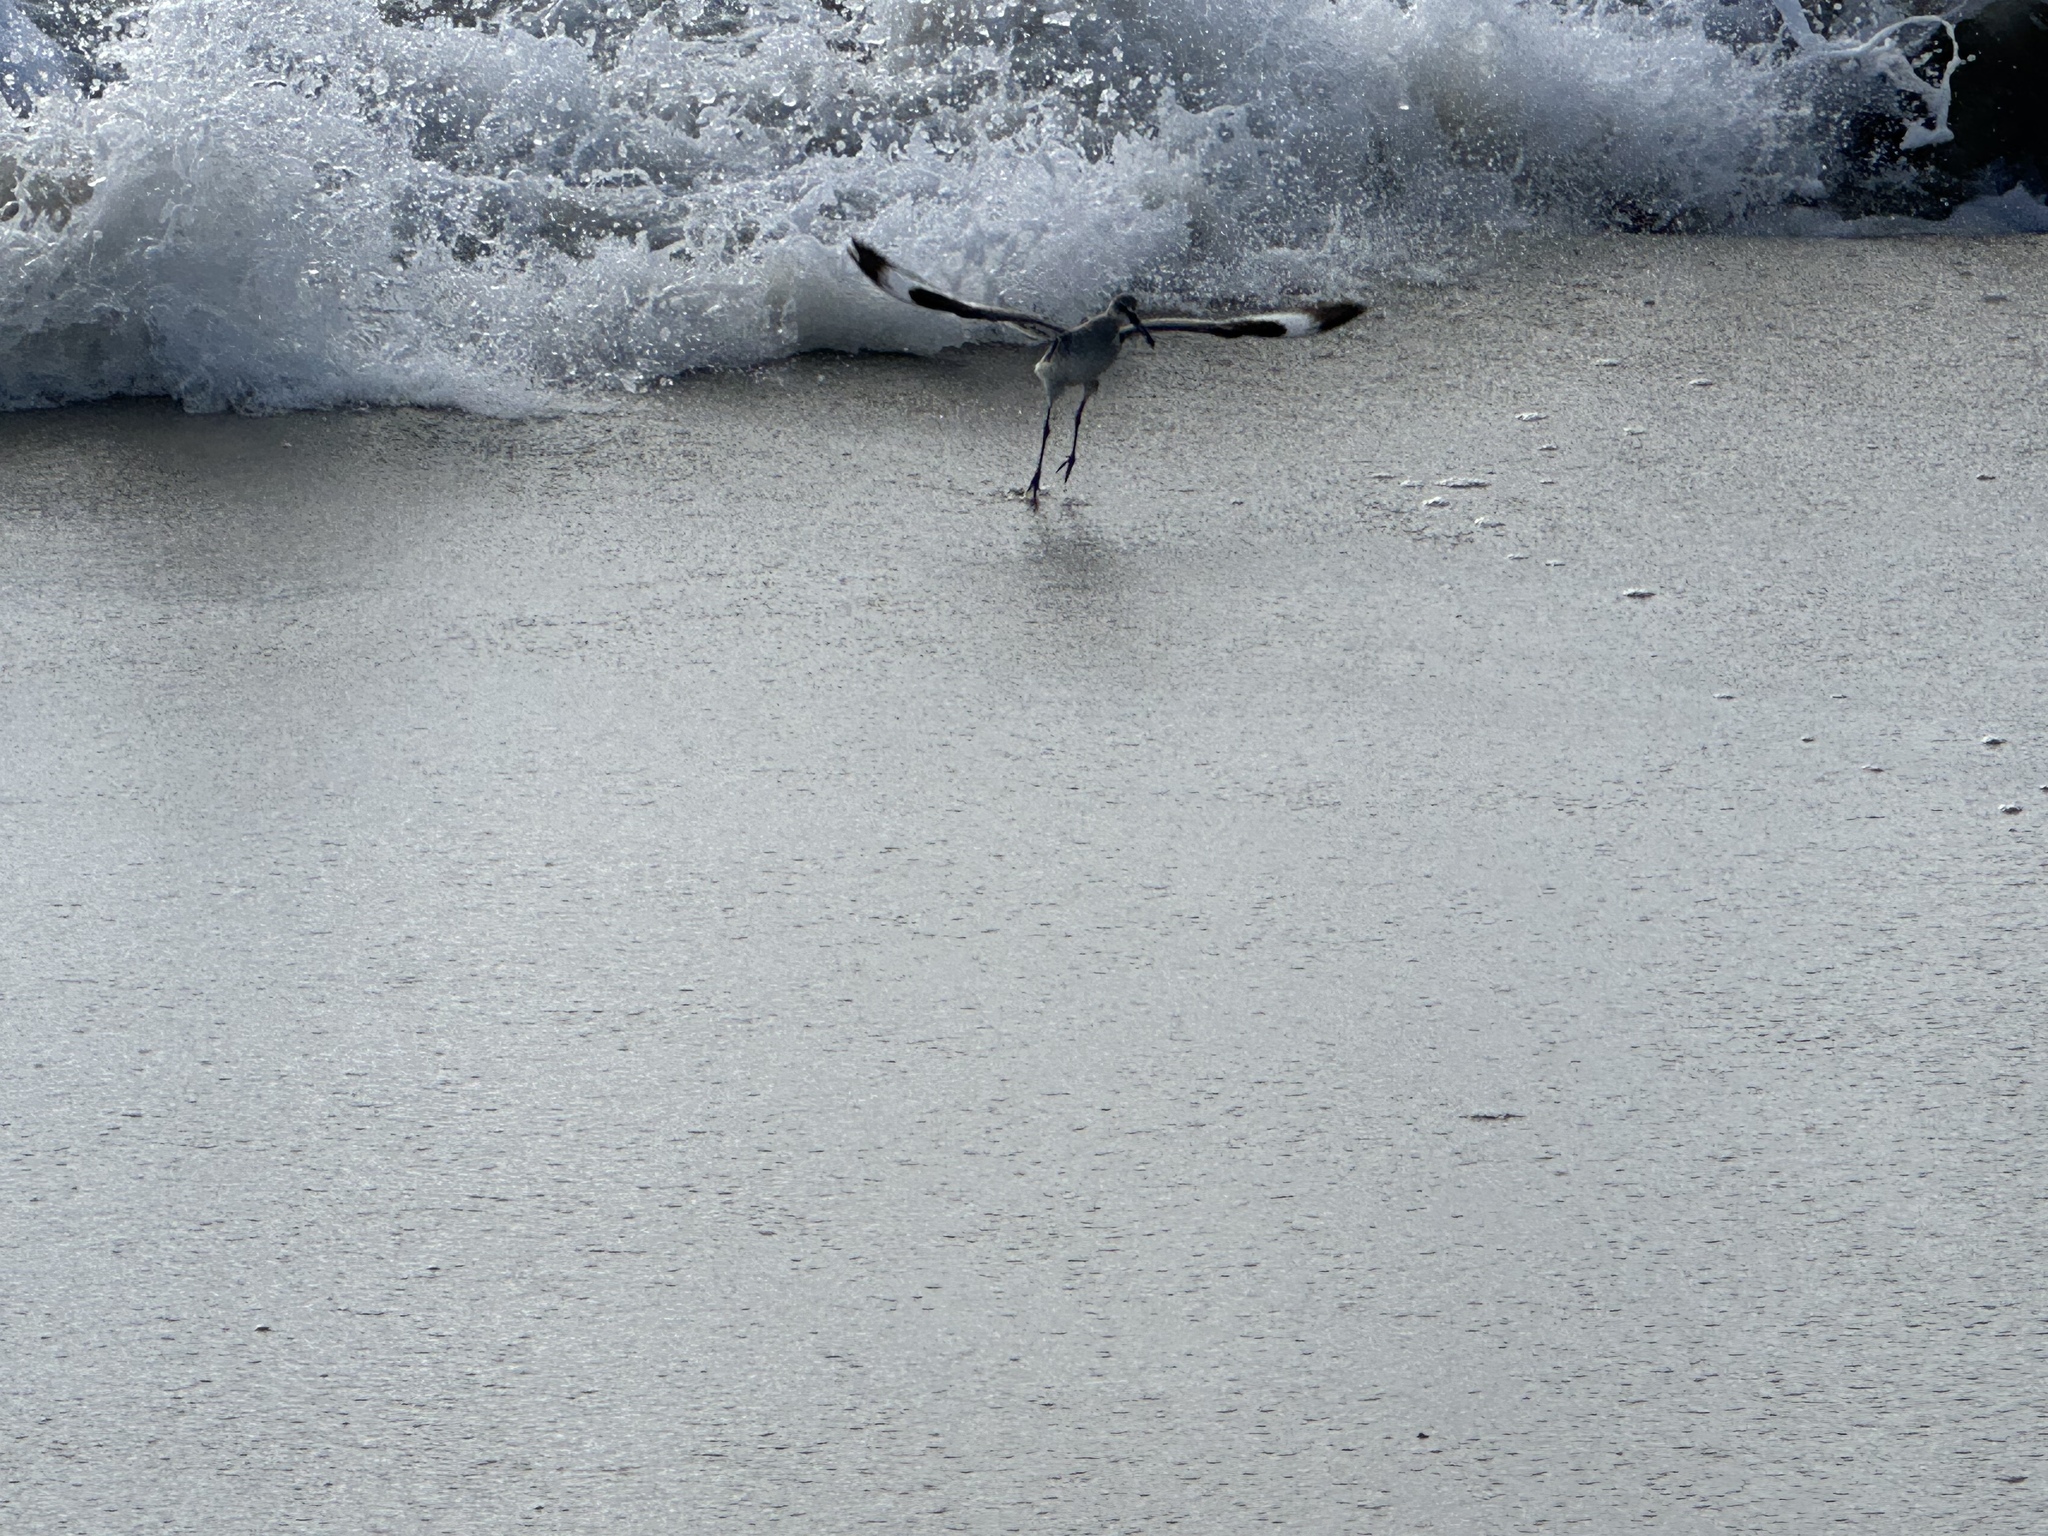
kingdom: Animalia
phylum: Chordata
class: Aves
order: Charadriiformes
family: Scolopacidae
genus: Tringa
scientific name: Tringa semipalmata
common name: Willet
